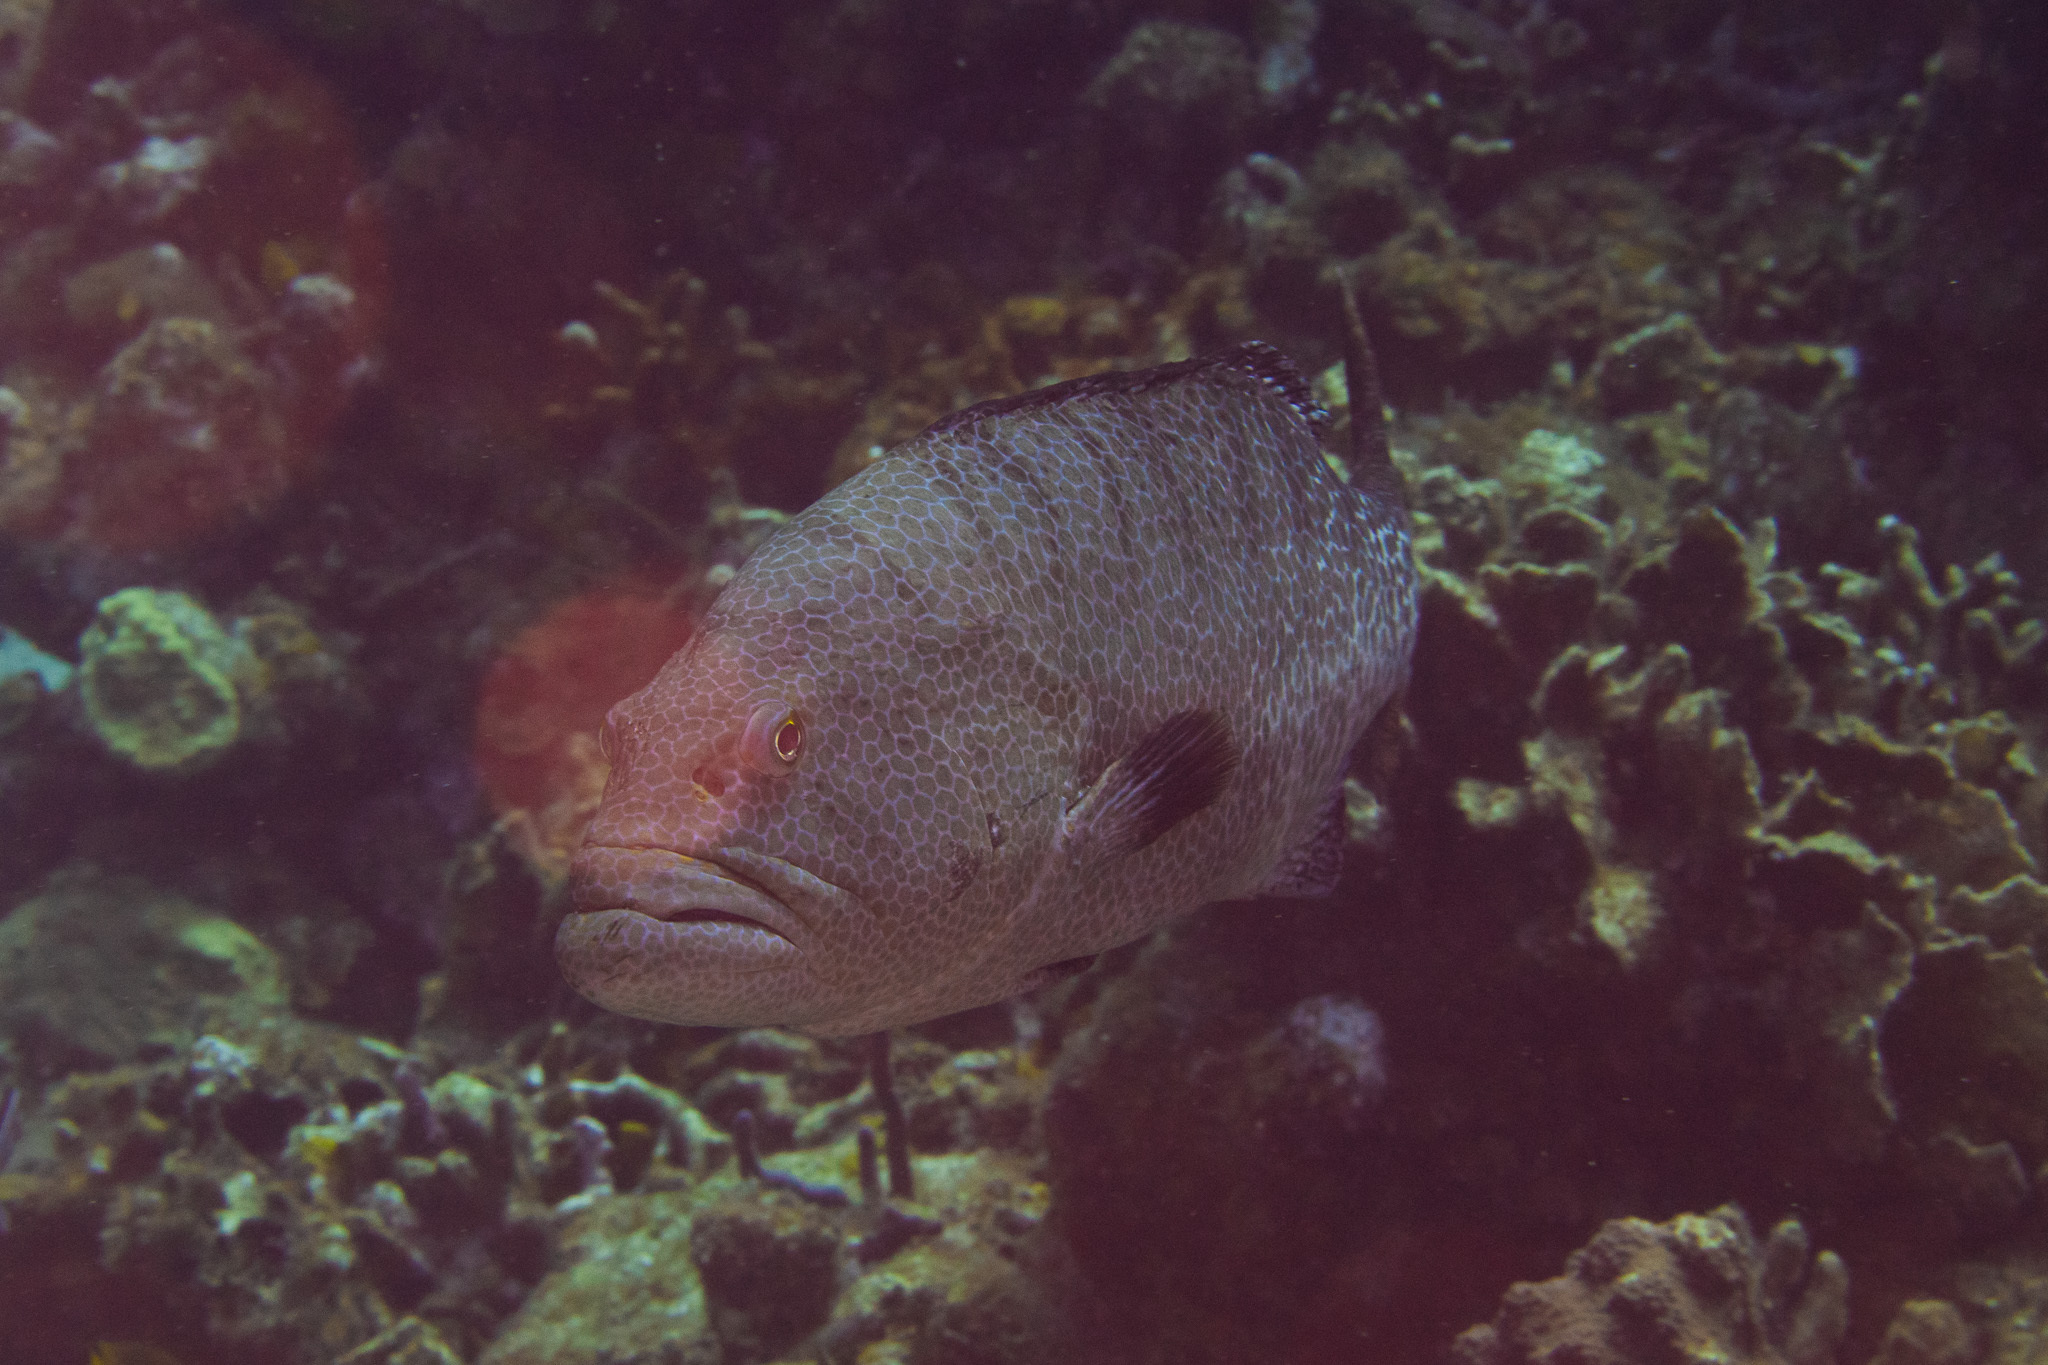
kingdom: Animalia
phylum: Chordata
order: Perciformes
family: Serranidae
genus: Mycteroperca
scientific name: Mycteroperca tigris
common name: Tiger grouper
